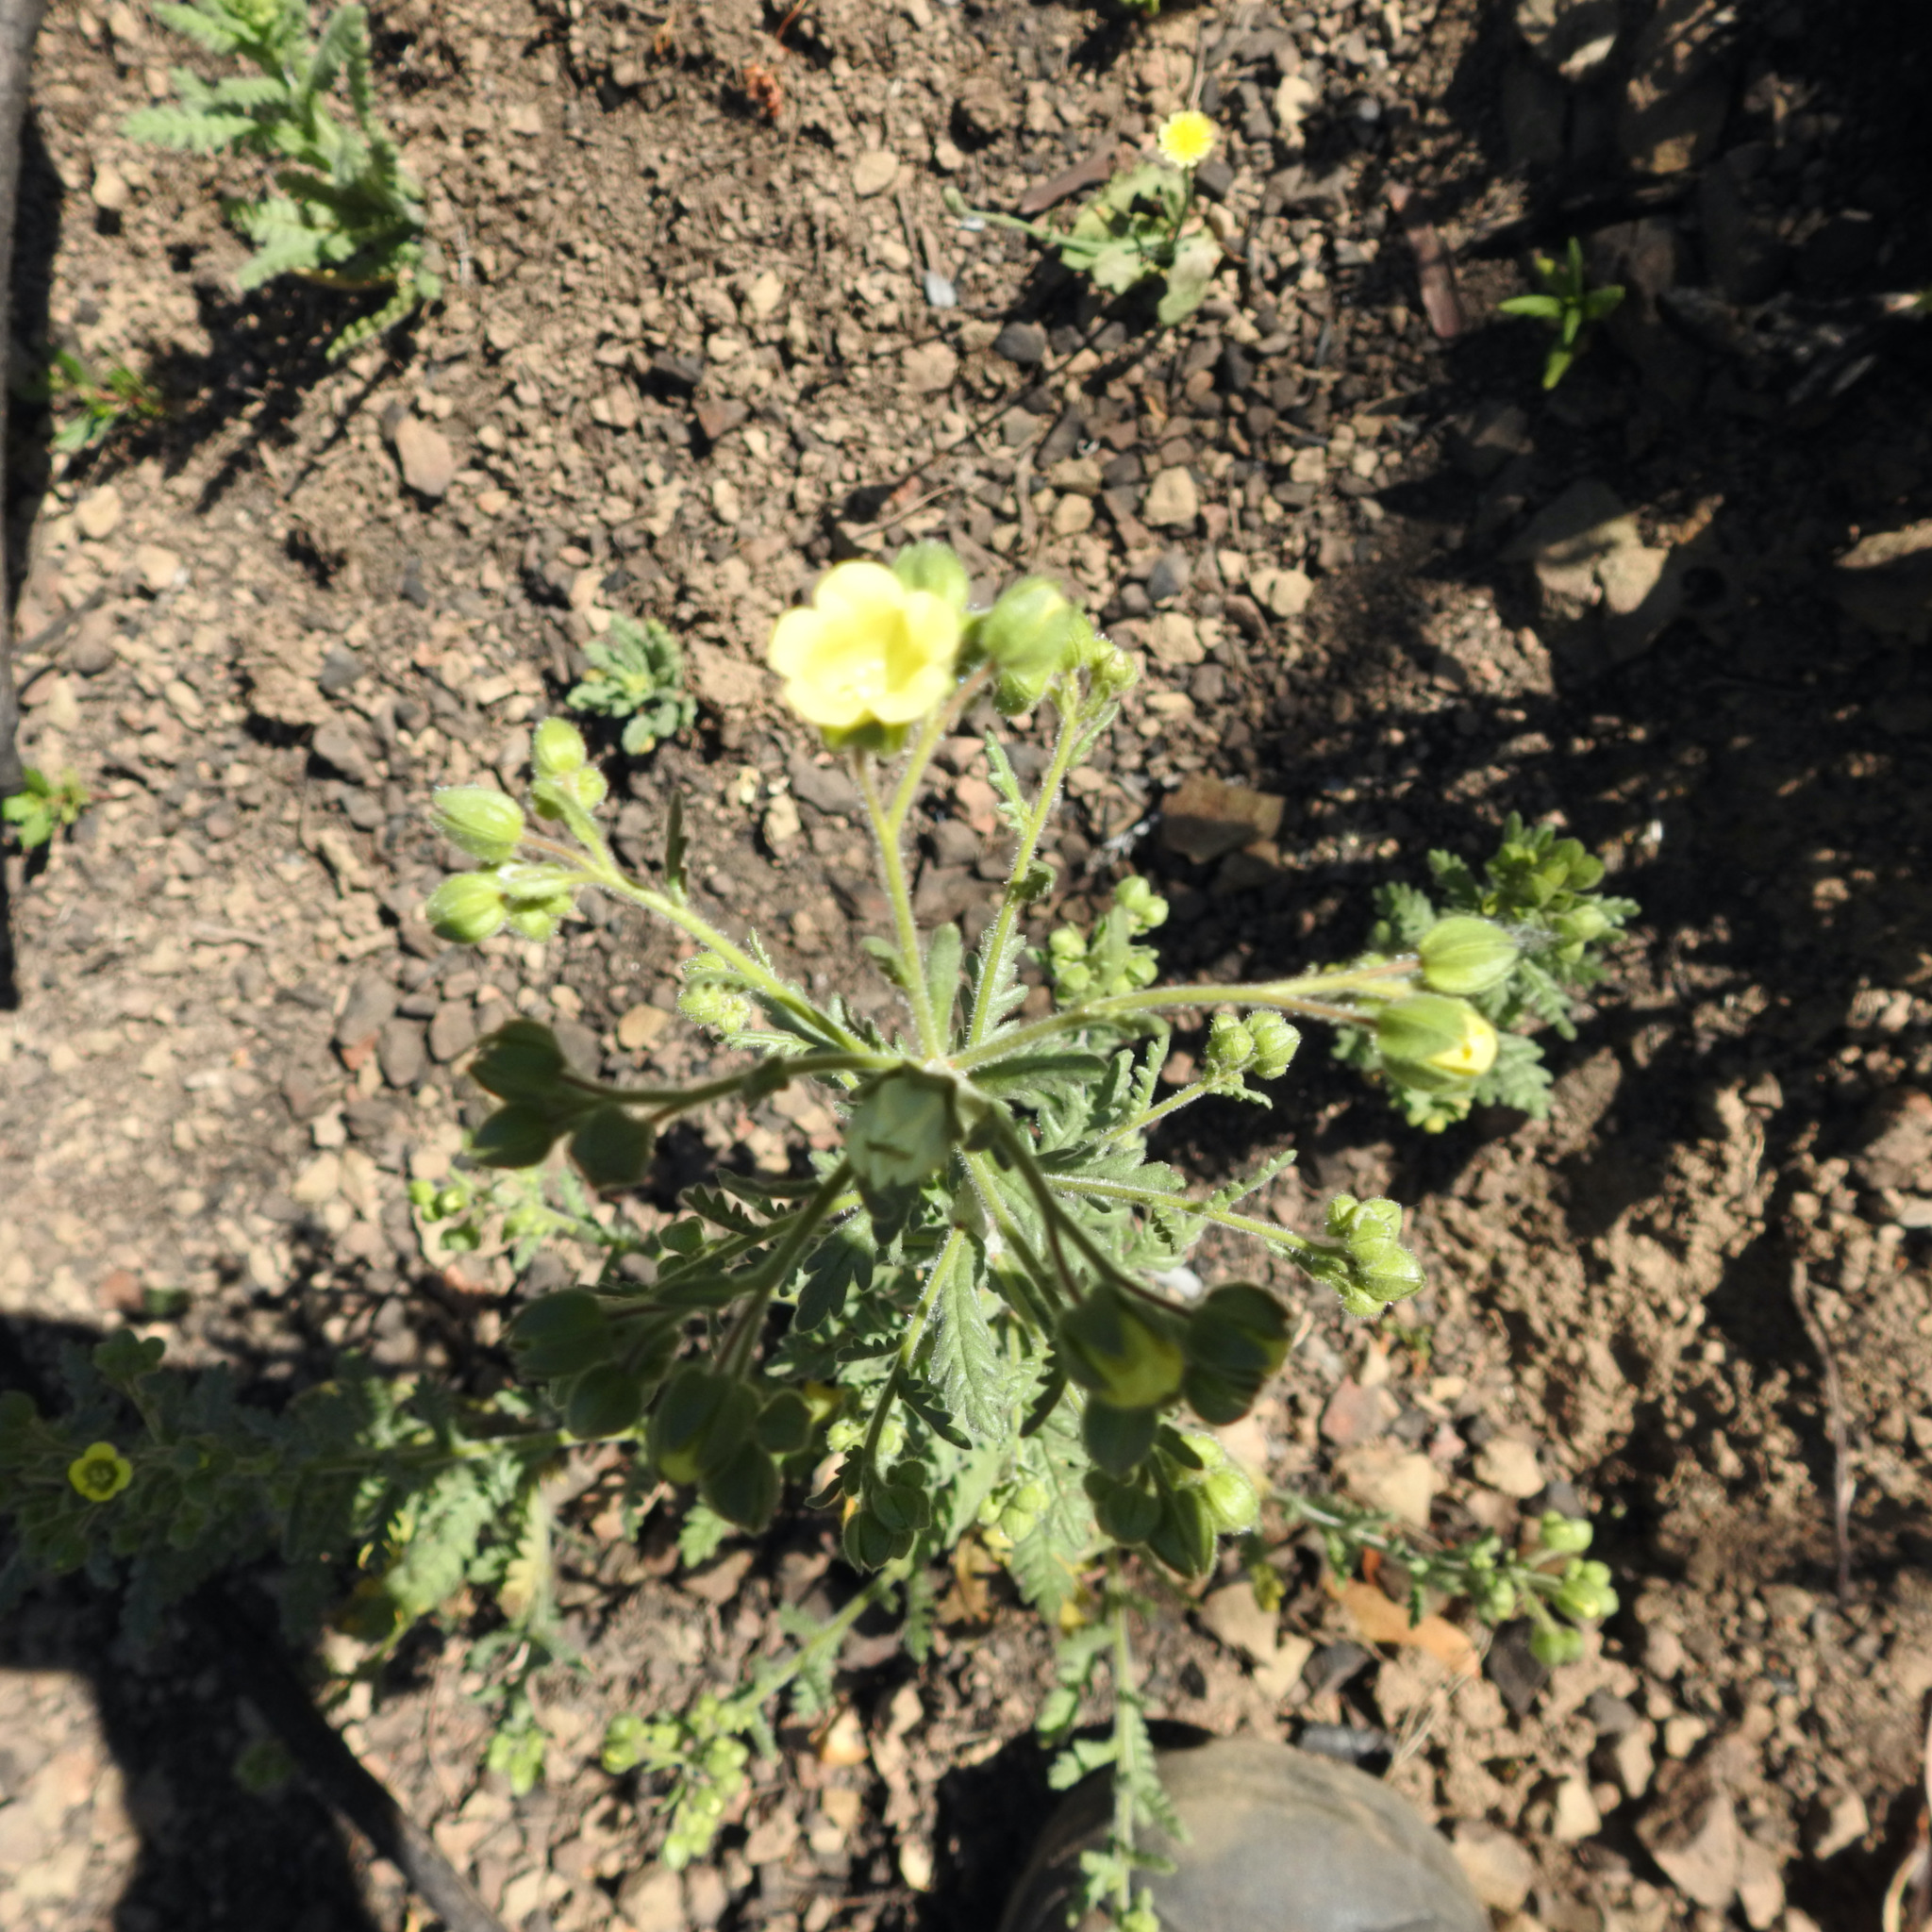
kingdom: Plantae
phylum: Tracheophyta
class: Magnoliopsida
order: Boraginales
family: Hydrophyllaceae
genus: Emmenanthe
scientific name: Emmenanthe penduliflora
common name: Whispering-bells
